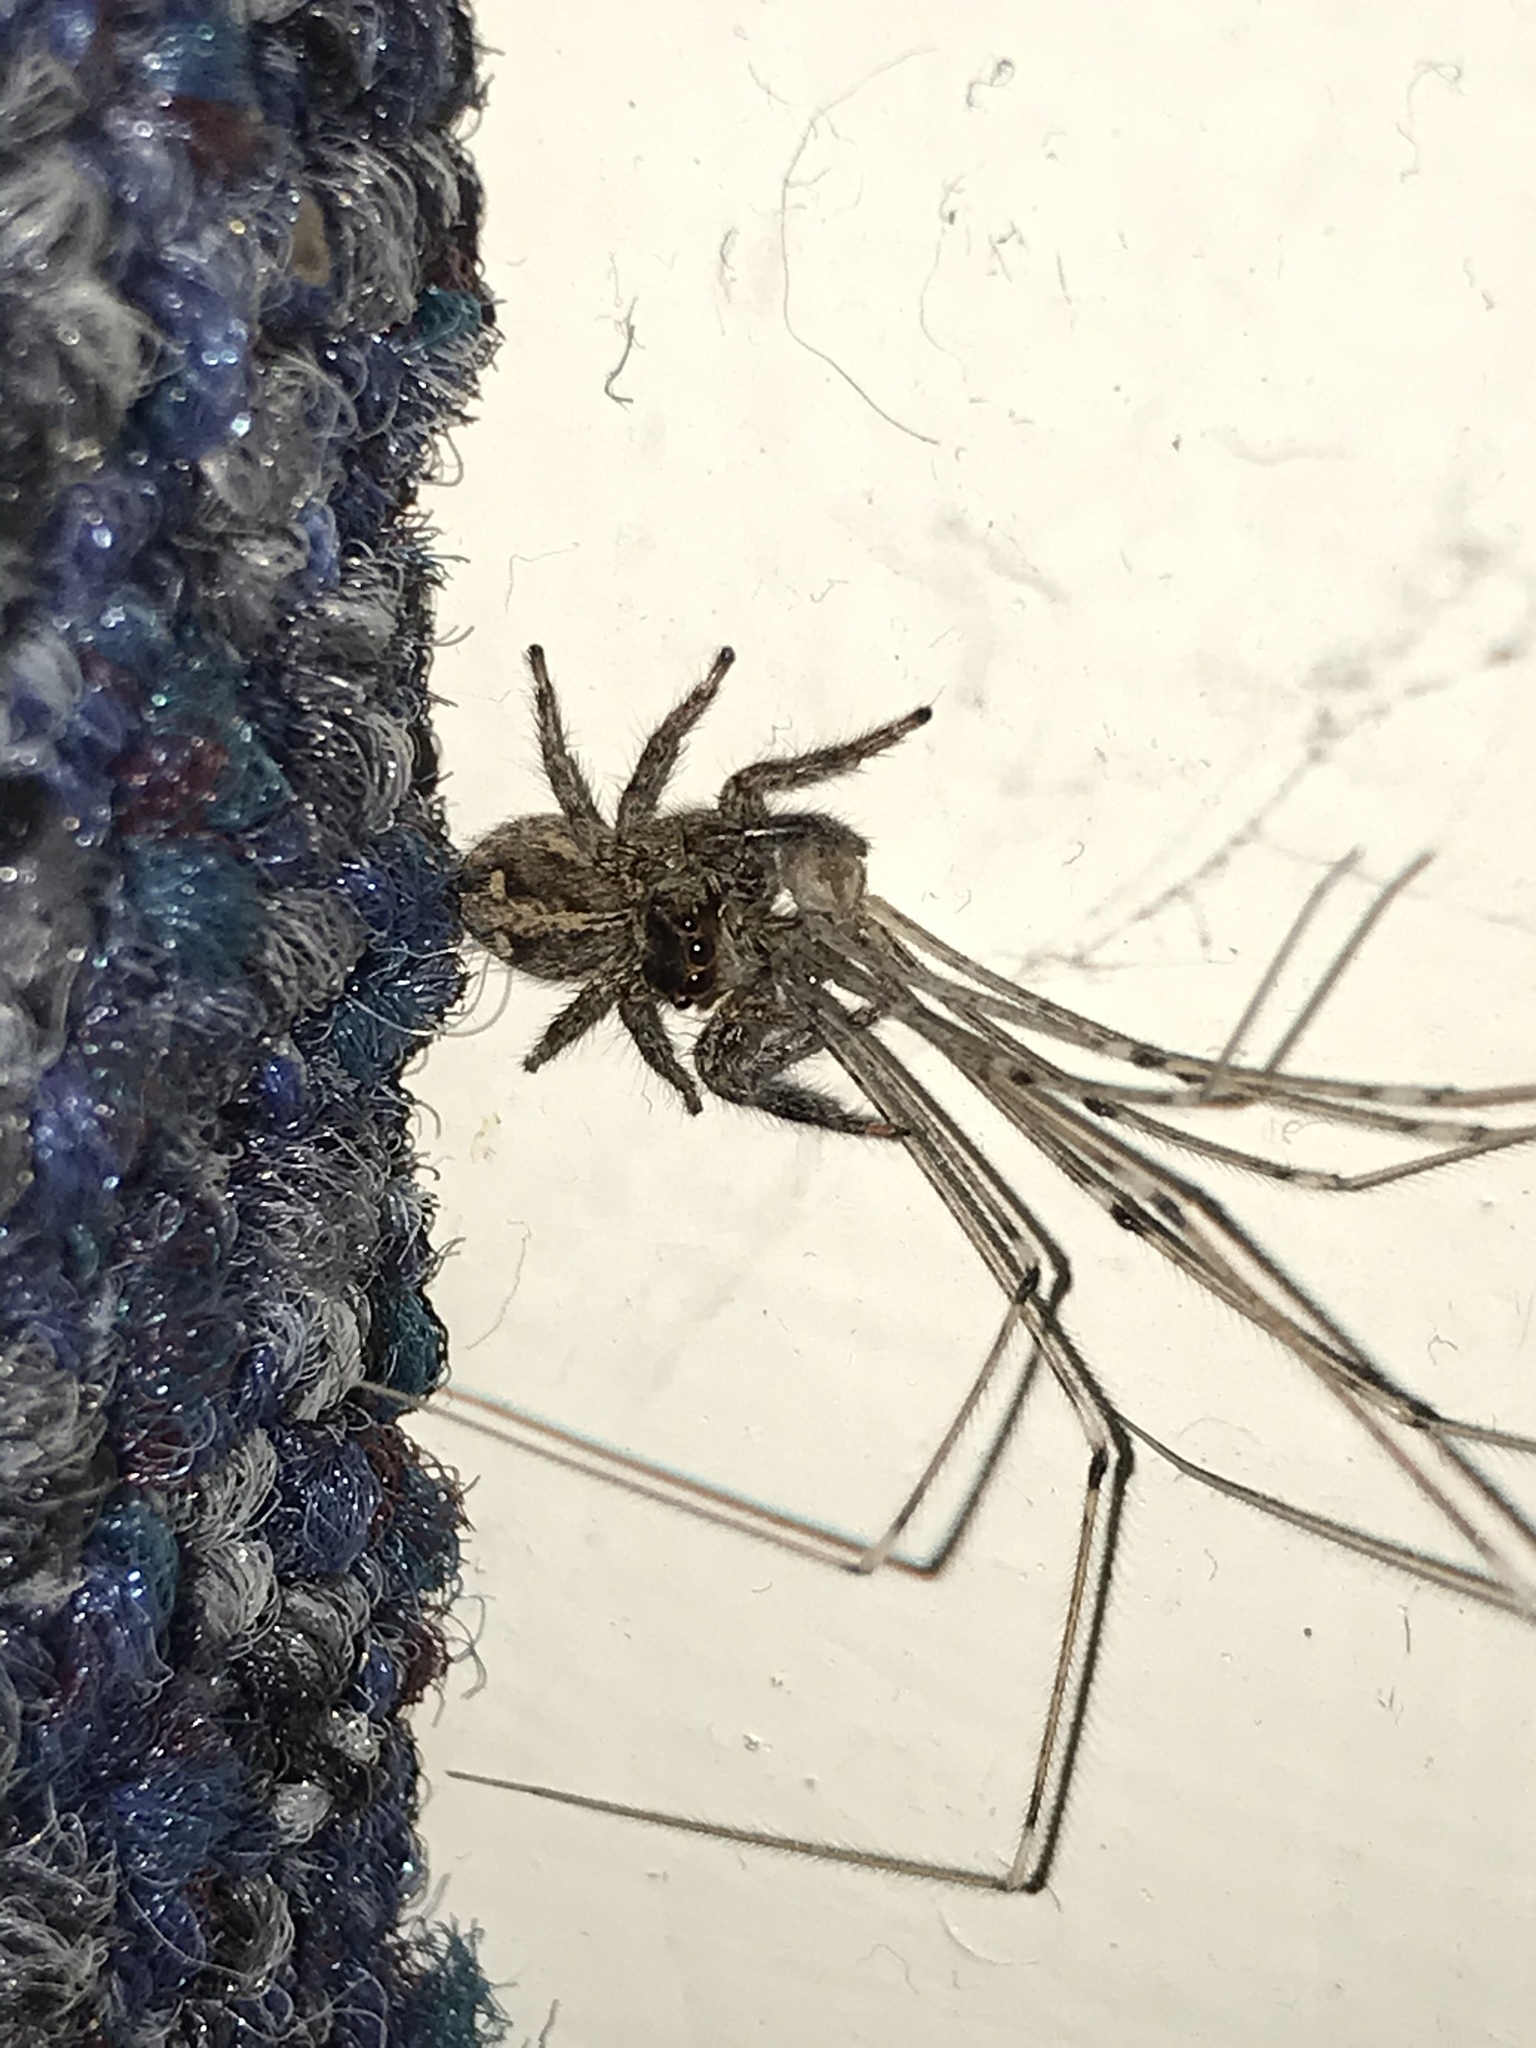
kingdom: Animalia
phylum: Arthropoda
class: Arachnida
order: Araneae
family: Salticidae
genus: Plexippus
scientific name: Plexippus paykulli
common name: Pantropical jumper
